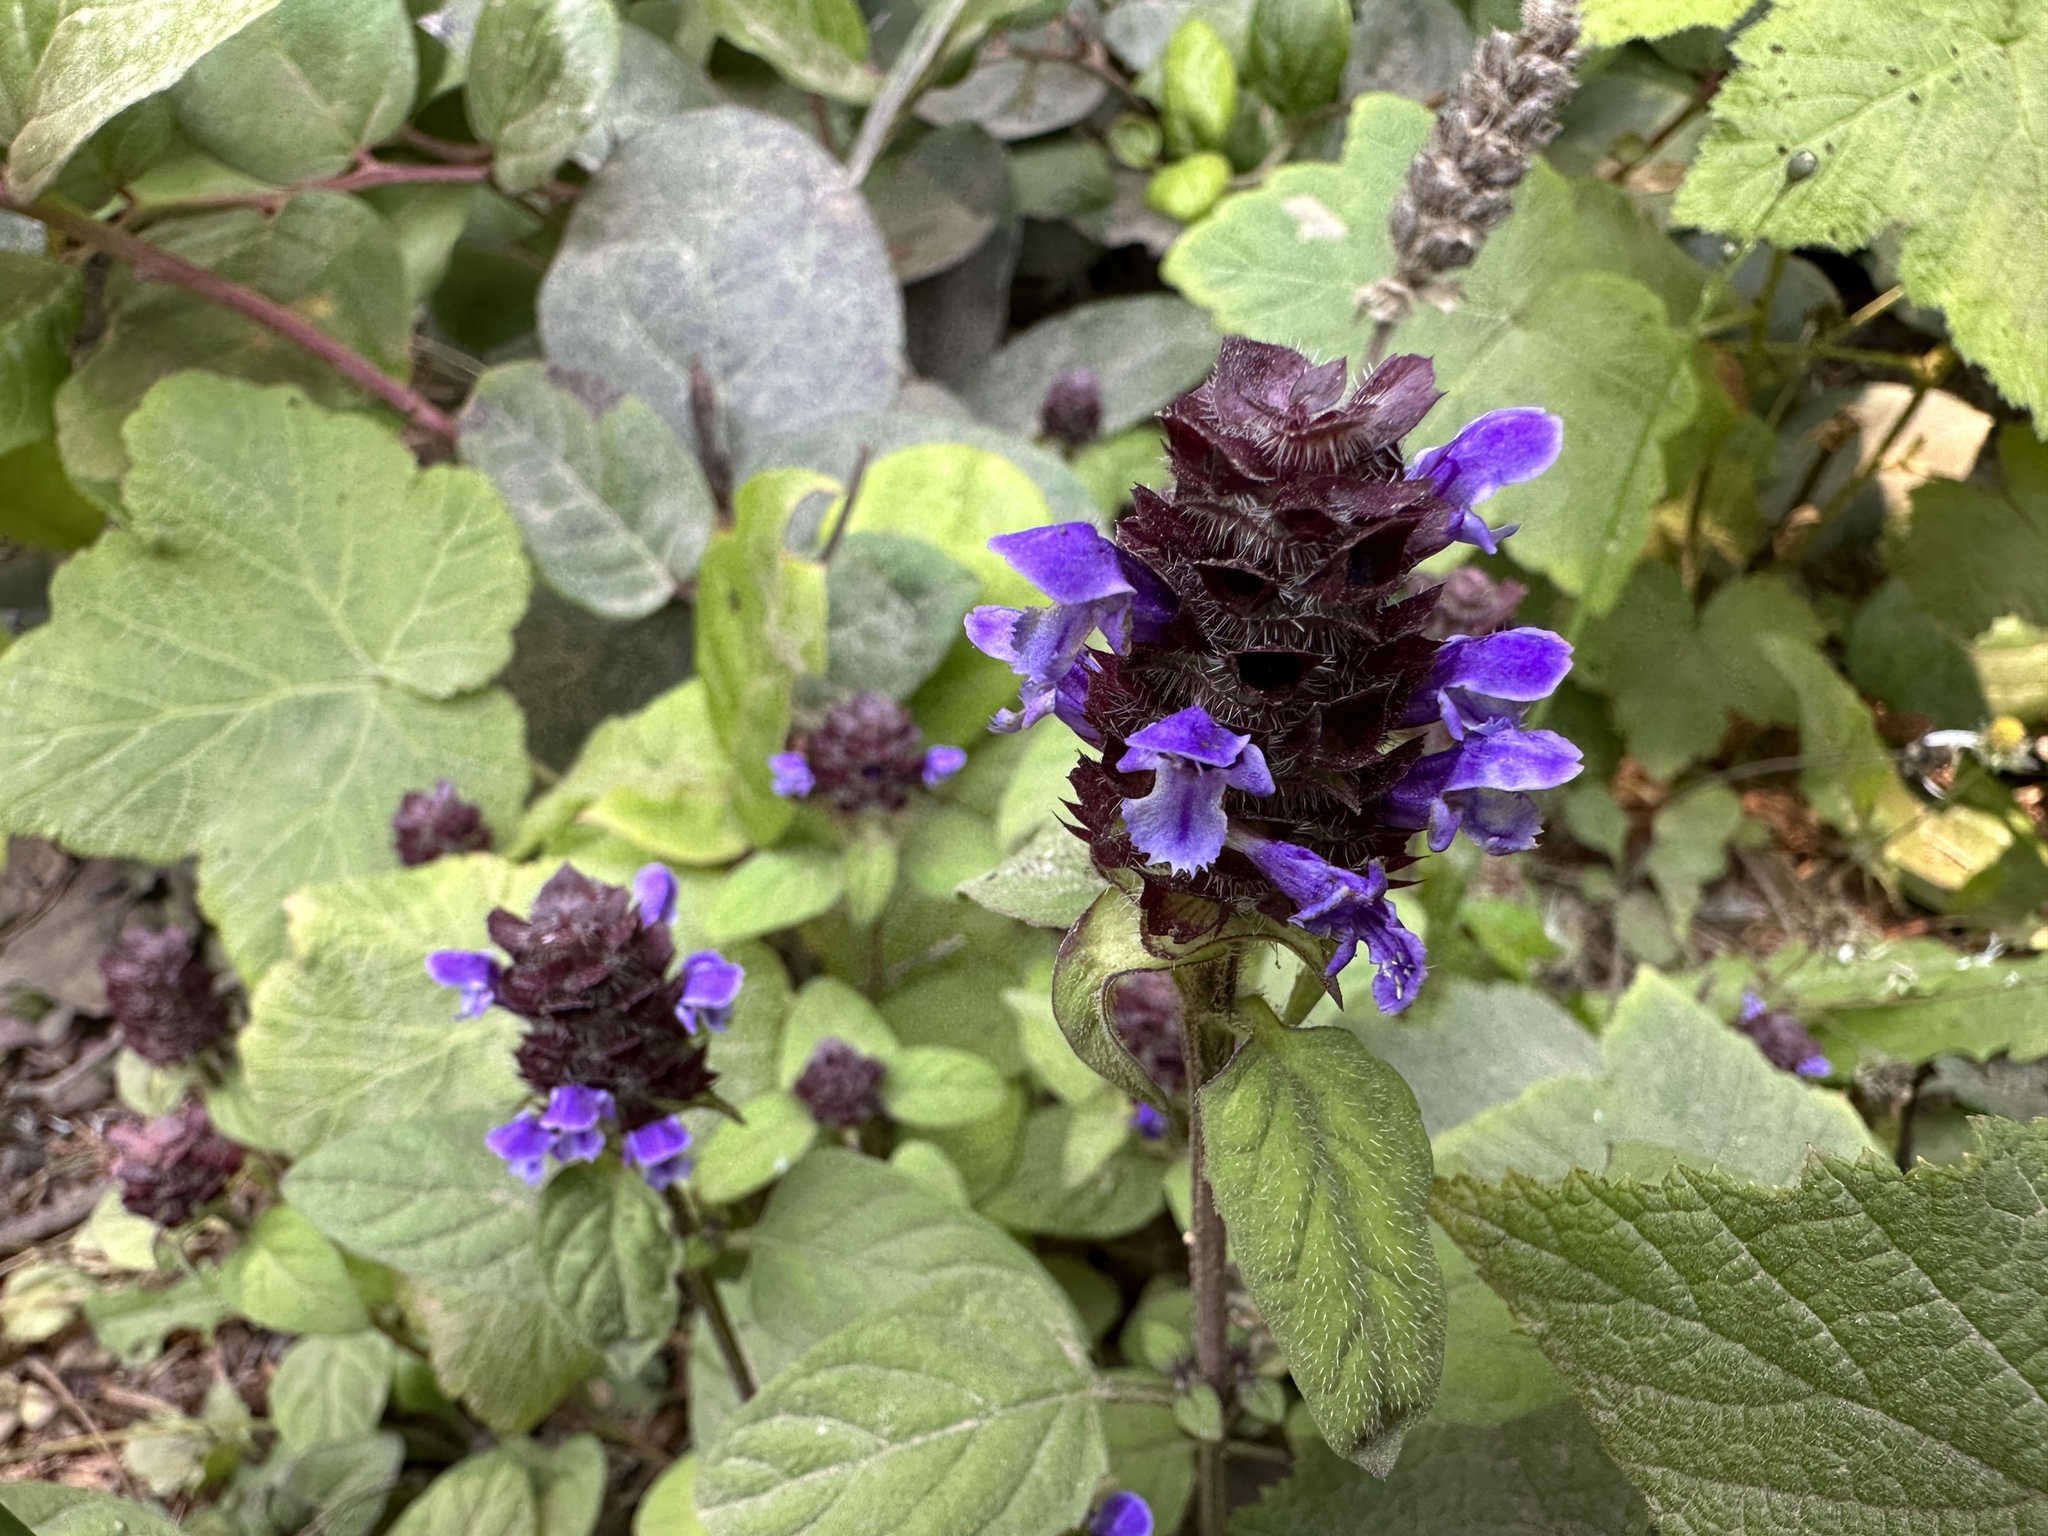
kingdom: Plantae
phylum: Tracheophyta
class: Magnoliopsida
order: Lamiales
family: Lamiaceae
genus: Prunella
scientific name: Prunella vulgaris
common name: Heal-all
